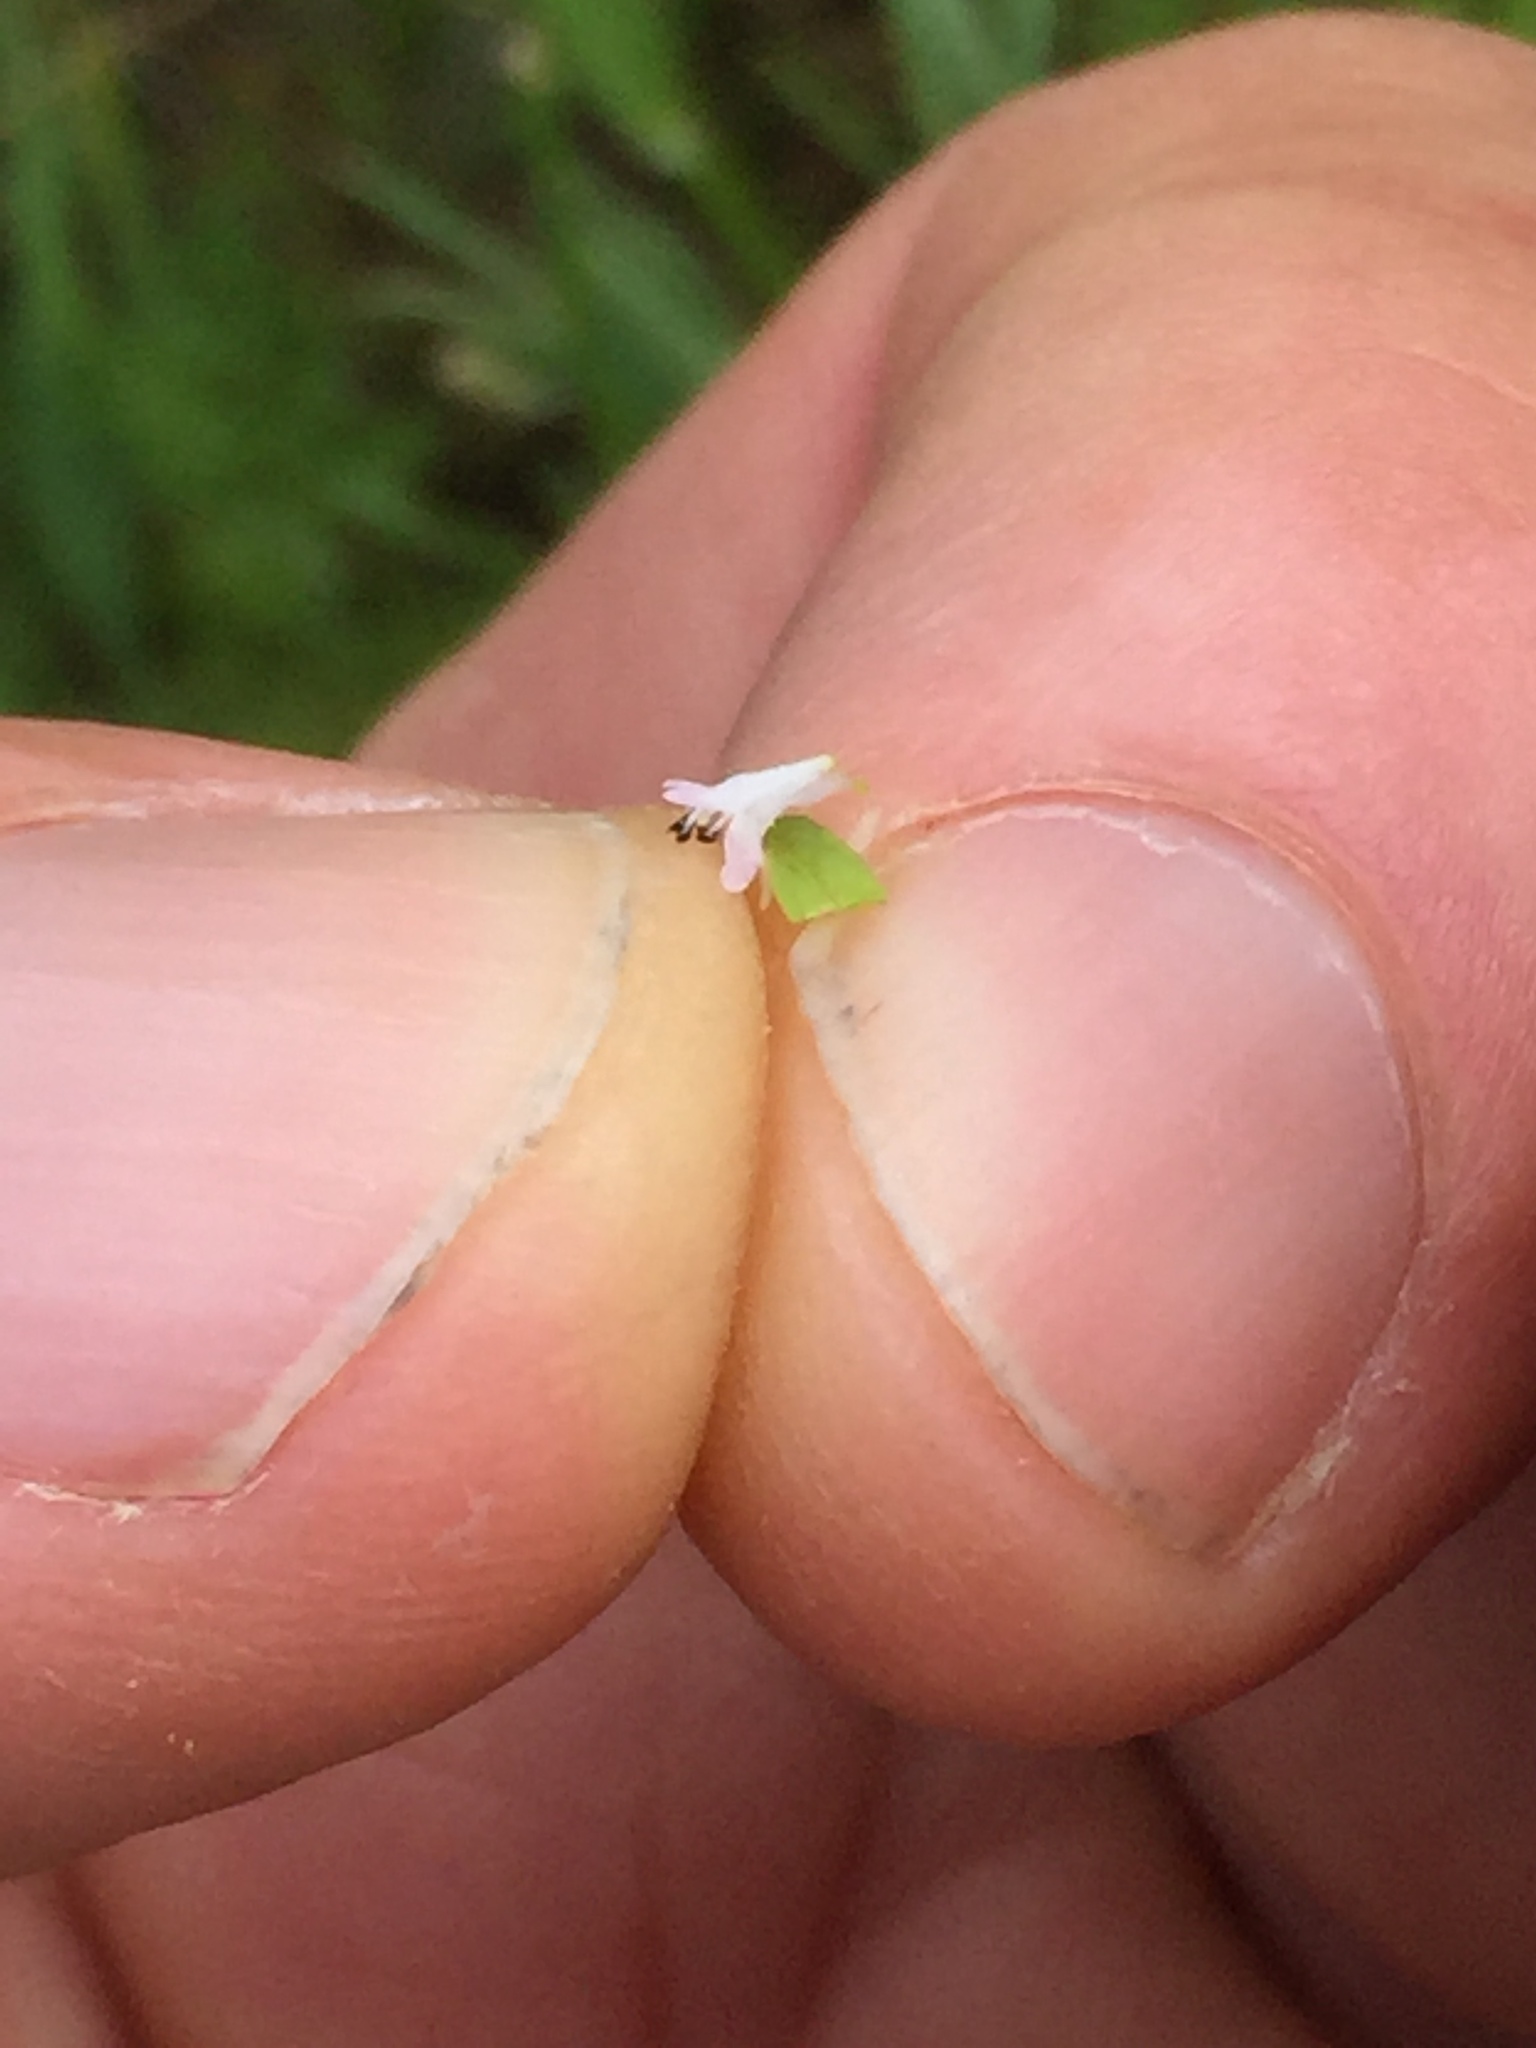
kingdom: Plantae
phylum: Tracheophyta
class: Magnoliopsida
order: Dipsacales
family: Caprifoliaceae
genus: Plectritis
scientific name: Plectritis macroptera
